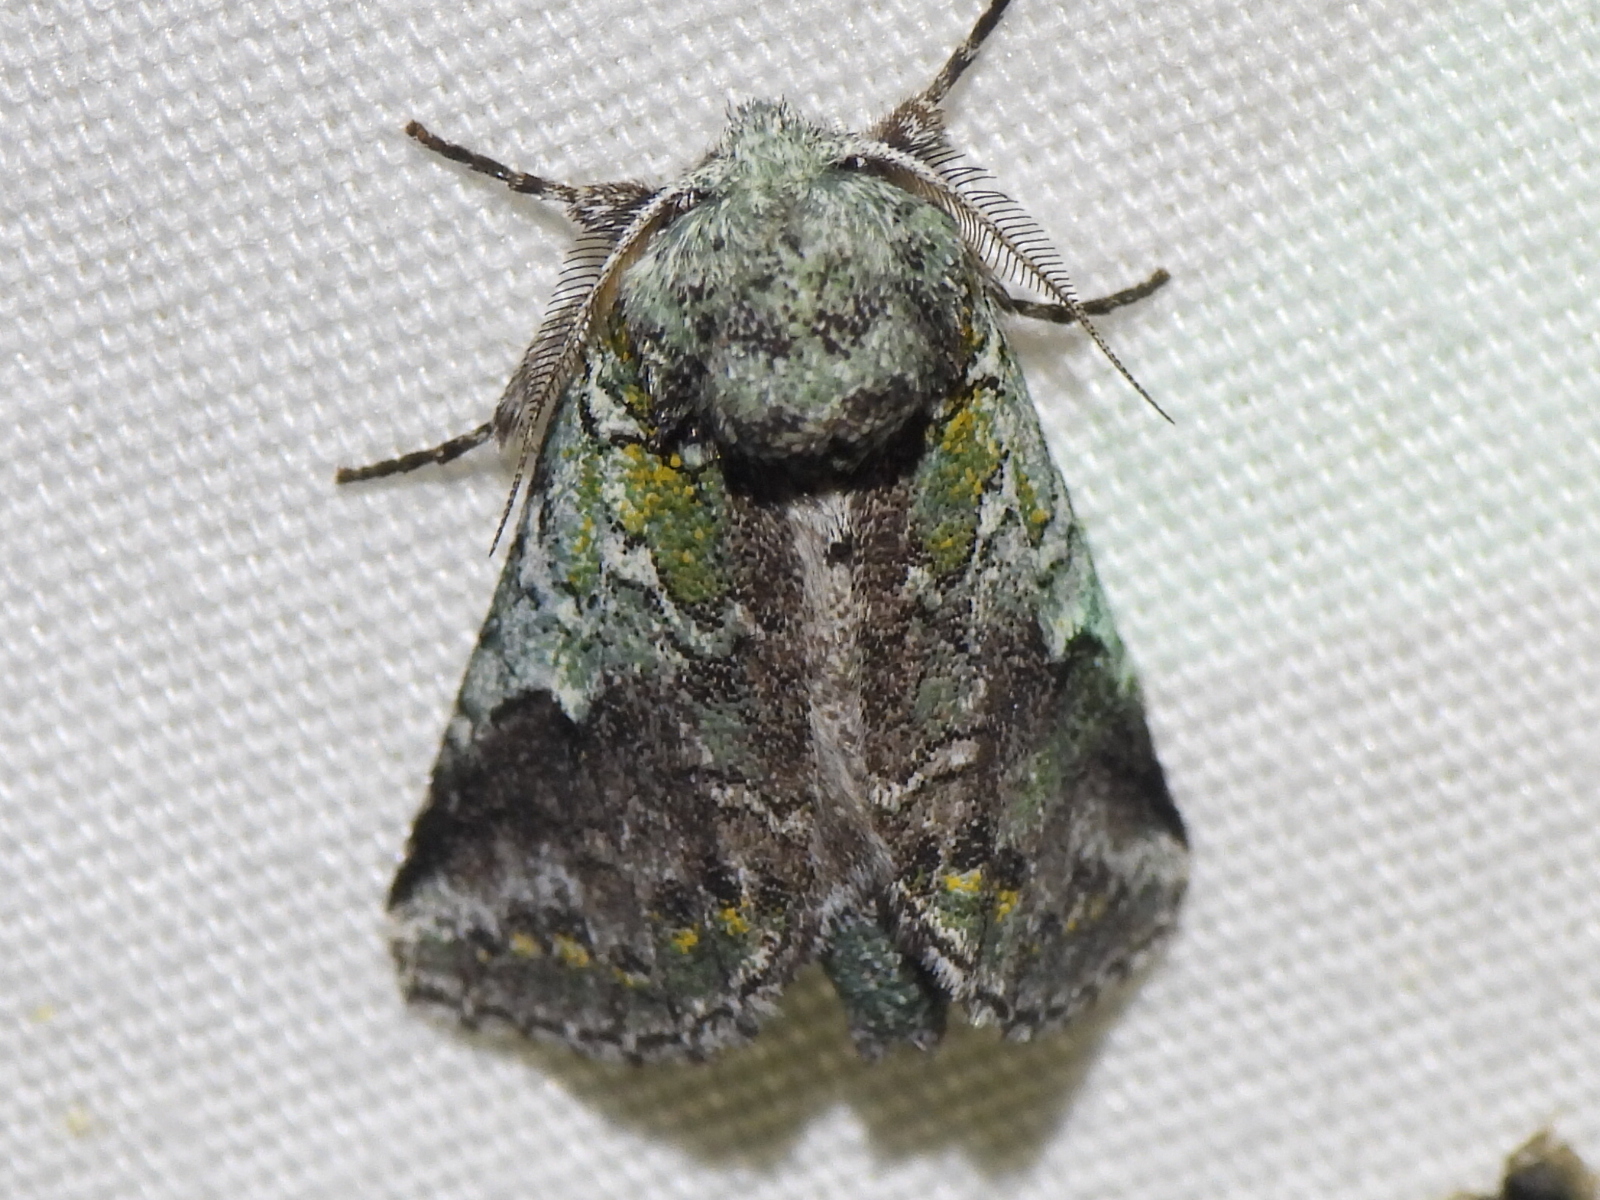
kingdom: Animalia
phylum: Arthropoda
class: Insecta
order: Lepidoptera
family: Notodontidae
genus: Litodonta
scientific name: Litodonta hydromeli
